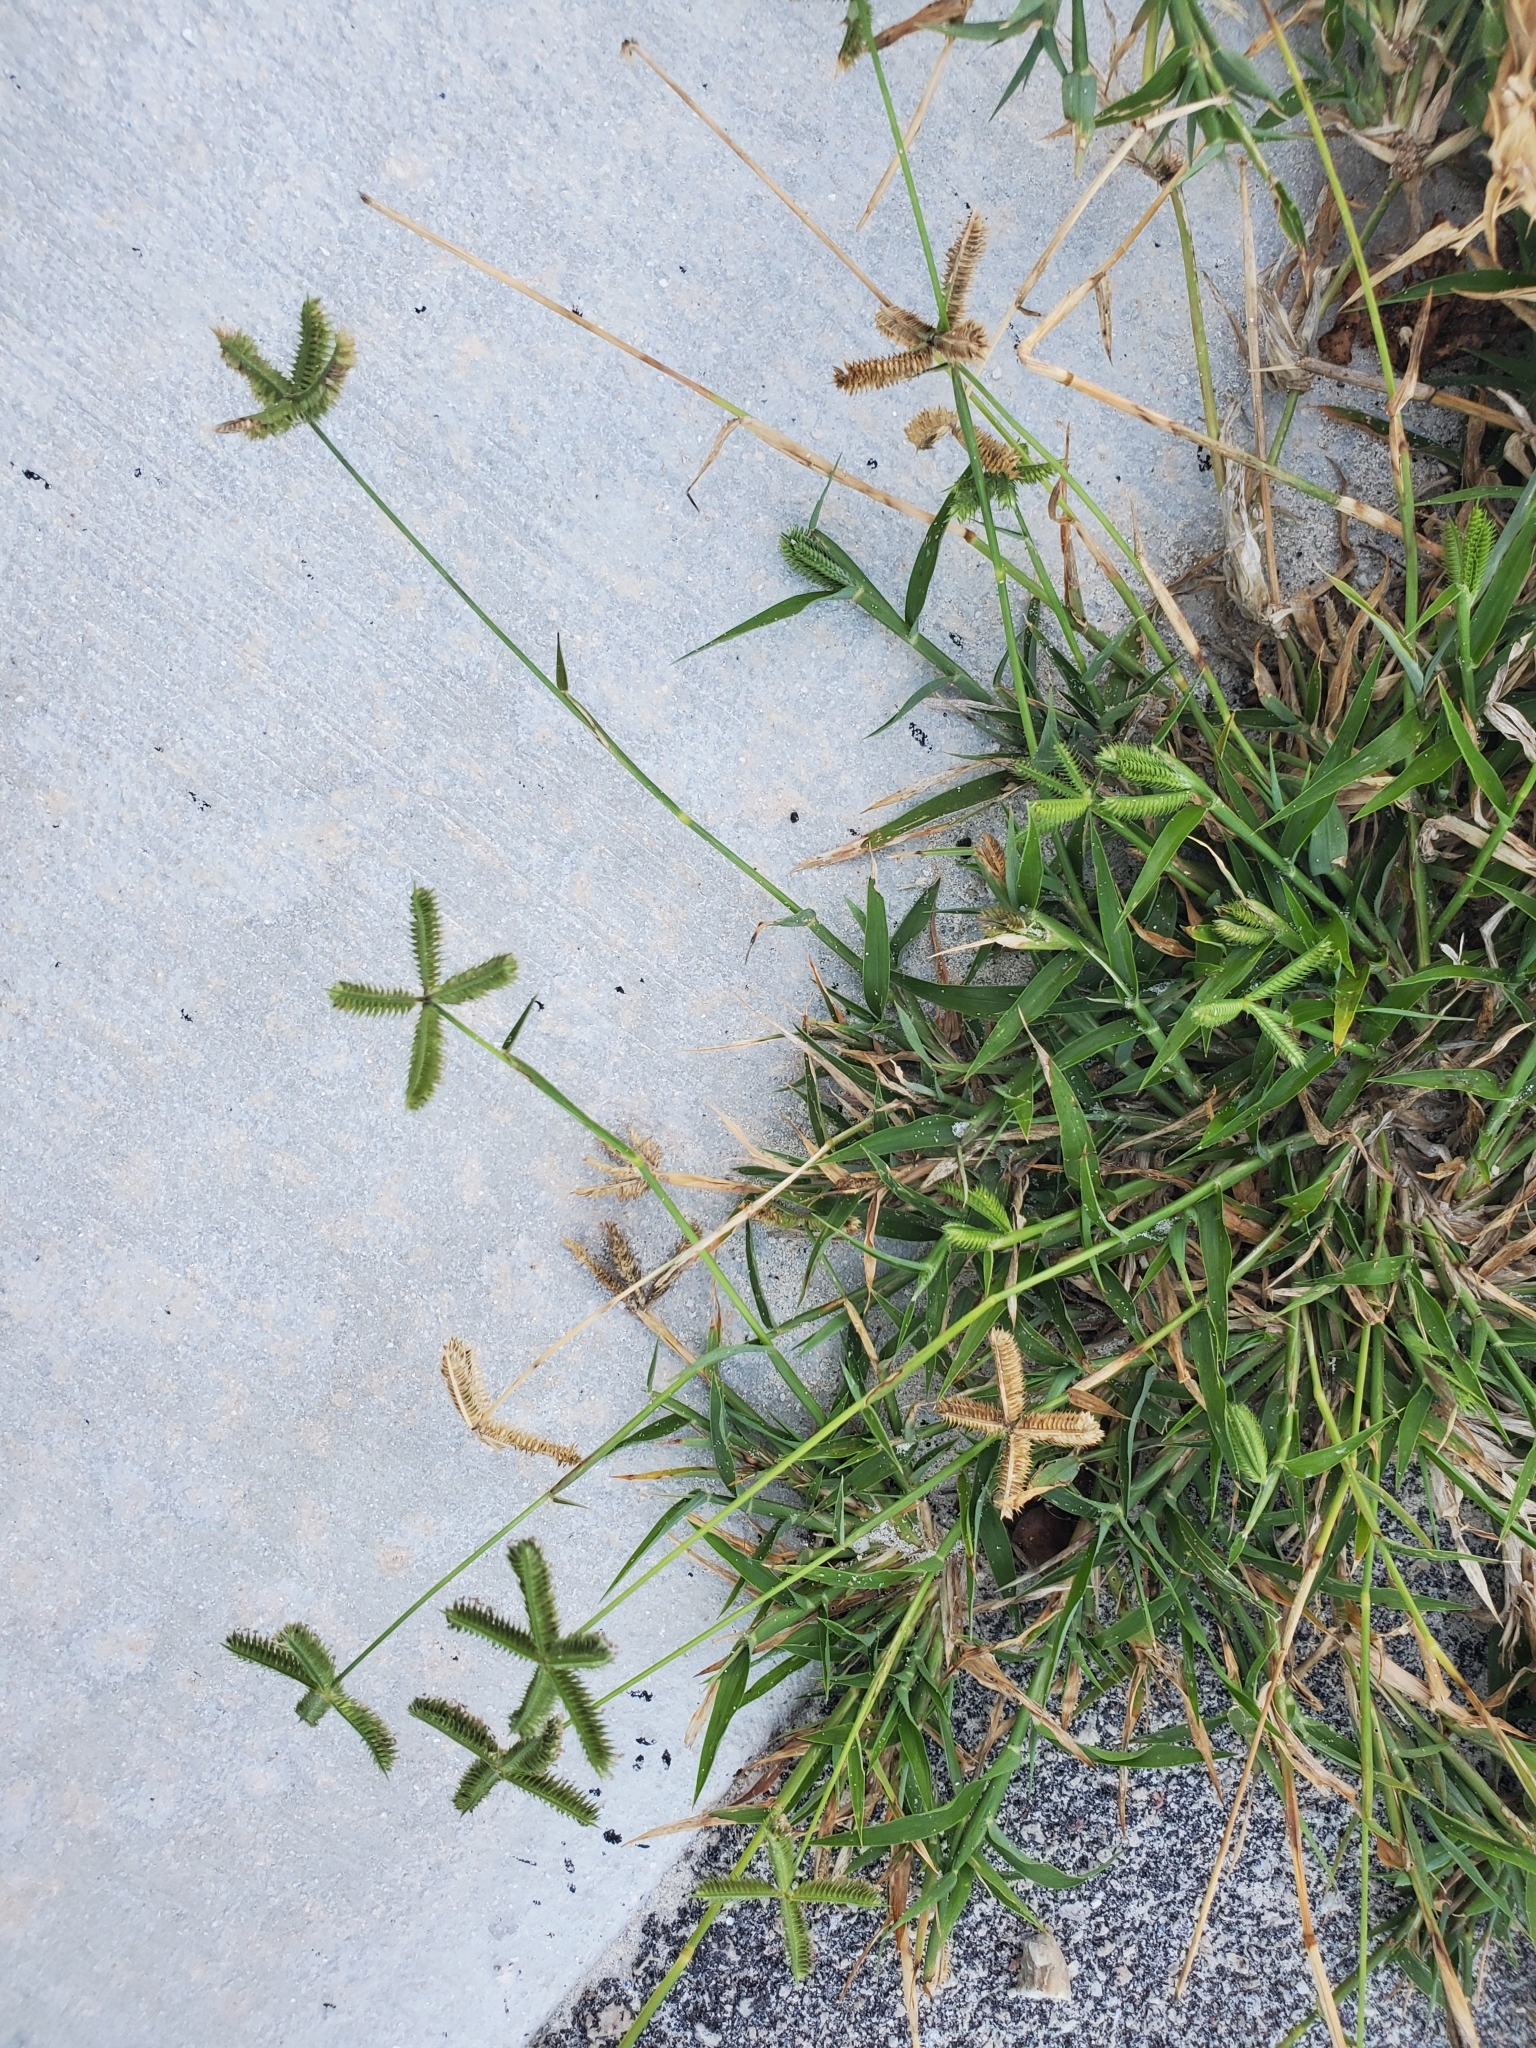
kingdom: Plantae
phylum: Tracheophyta
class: Liliopsida
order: Poales
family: Poaceae
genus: Dactyloctenium
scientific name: Dactyloctenium aegyptium
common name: Egyptian grass
